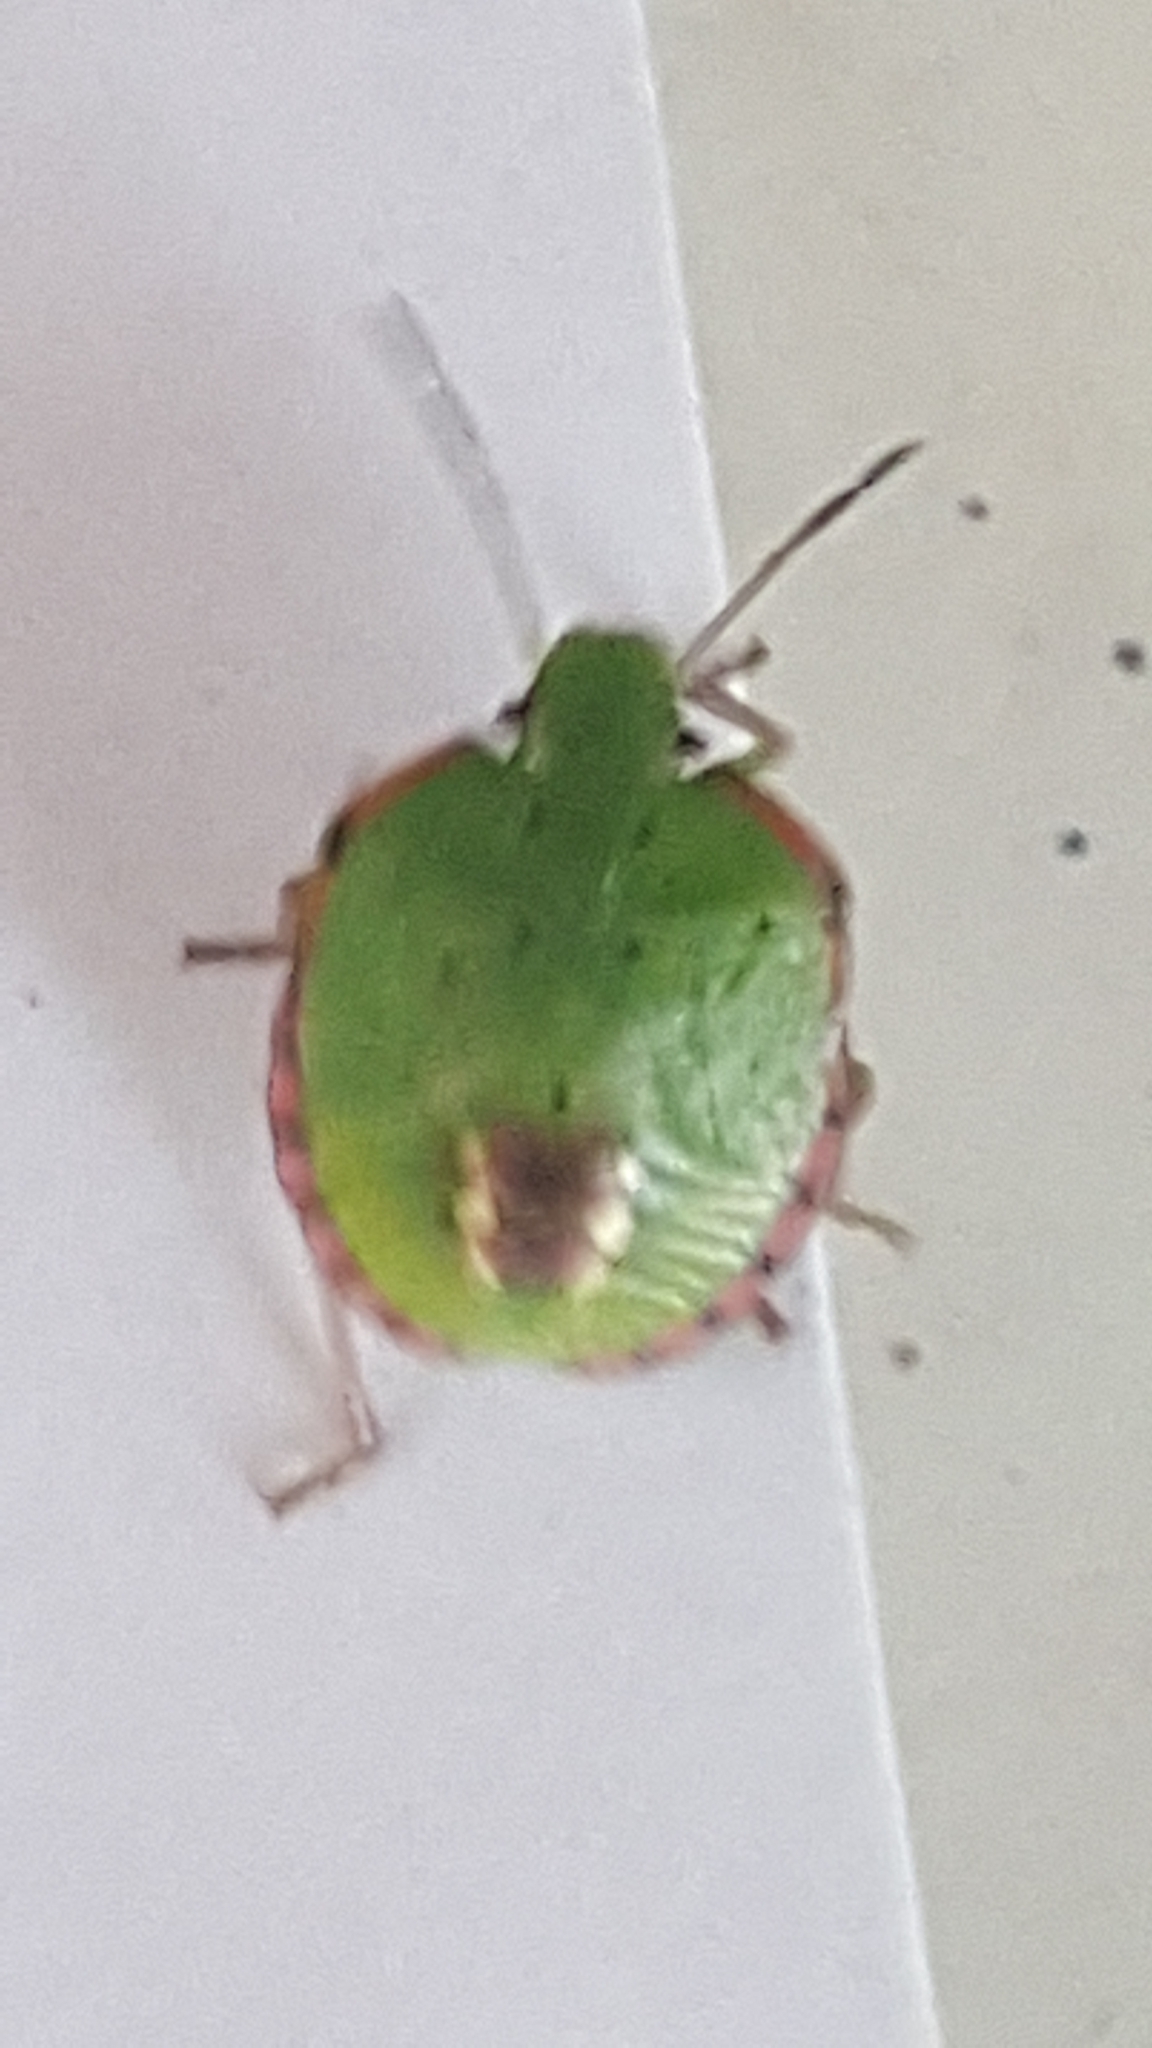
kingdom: Animalia
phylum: Arthropoda
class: Insecta
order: Hemiptera
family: Pentatomidae
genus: Nezara
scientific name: Nezara viridula
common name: Southern green stink bug
